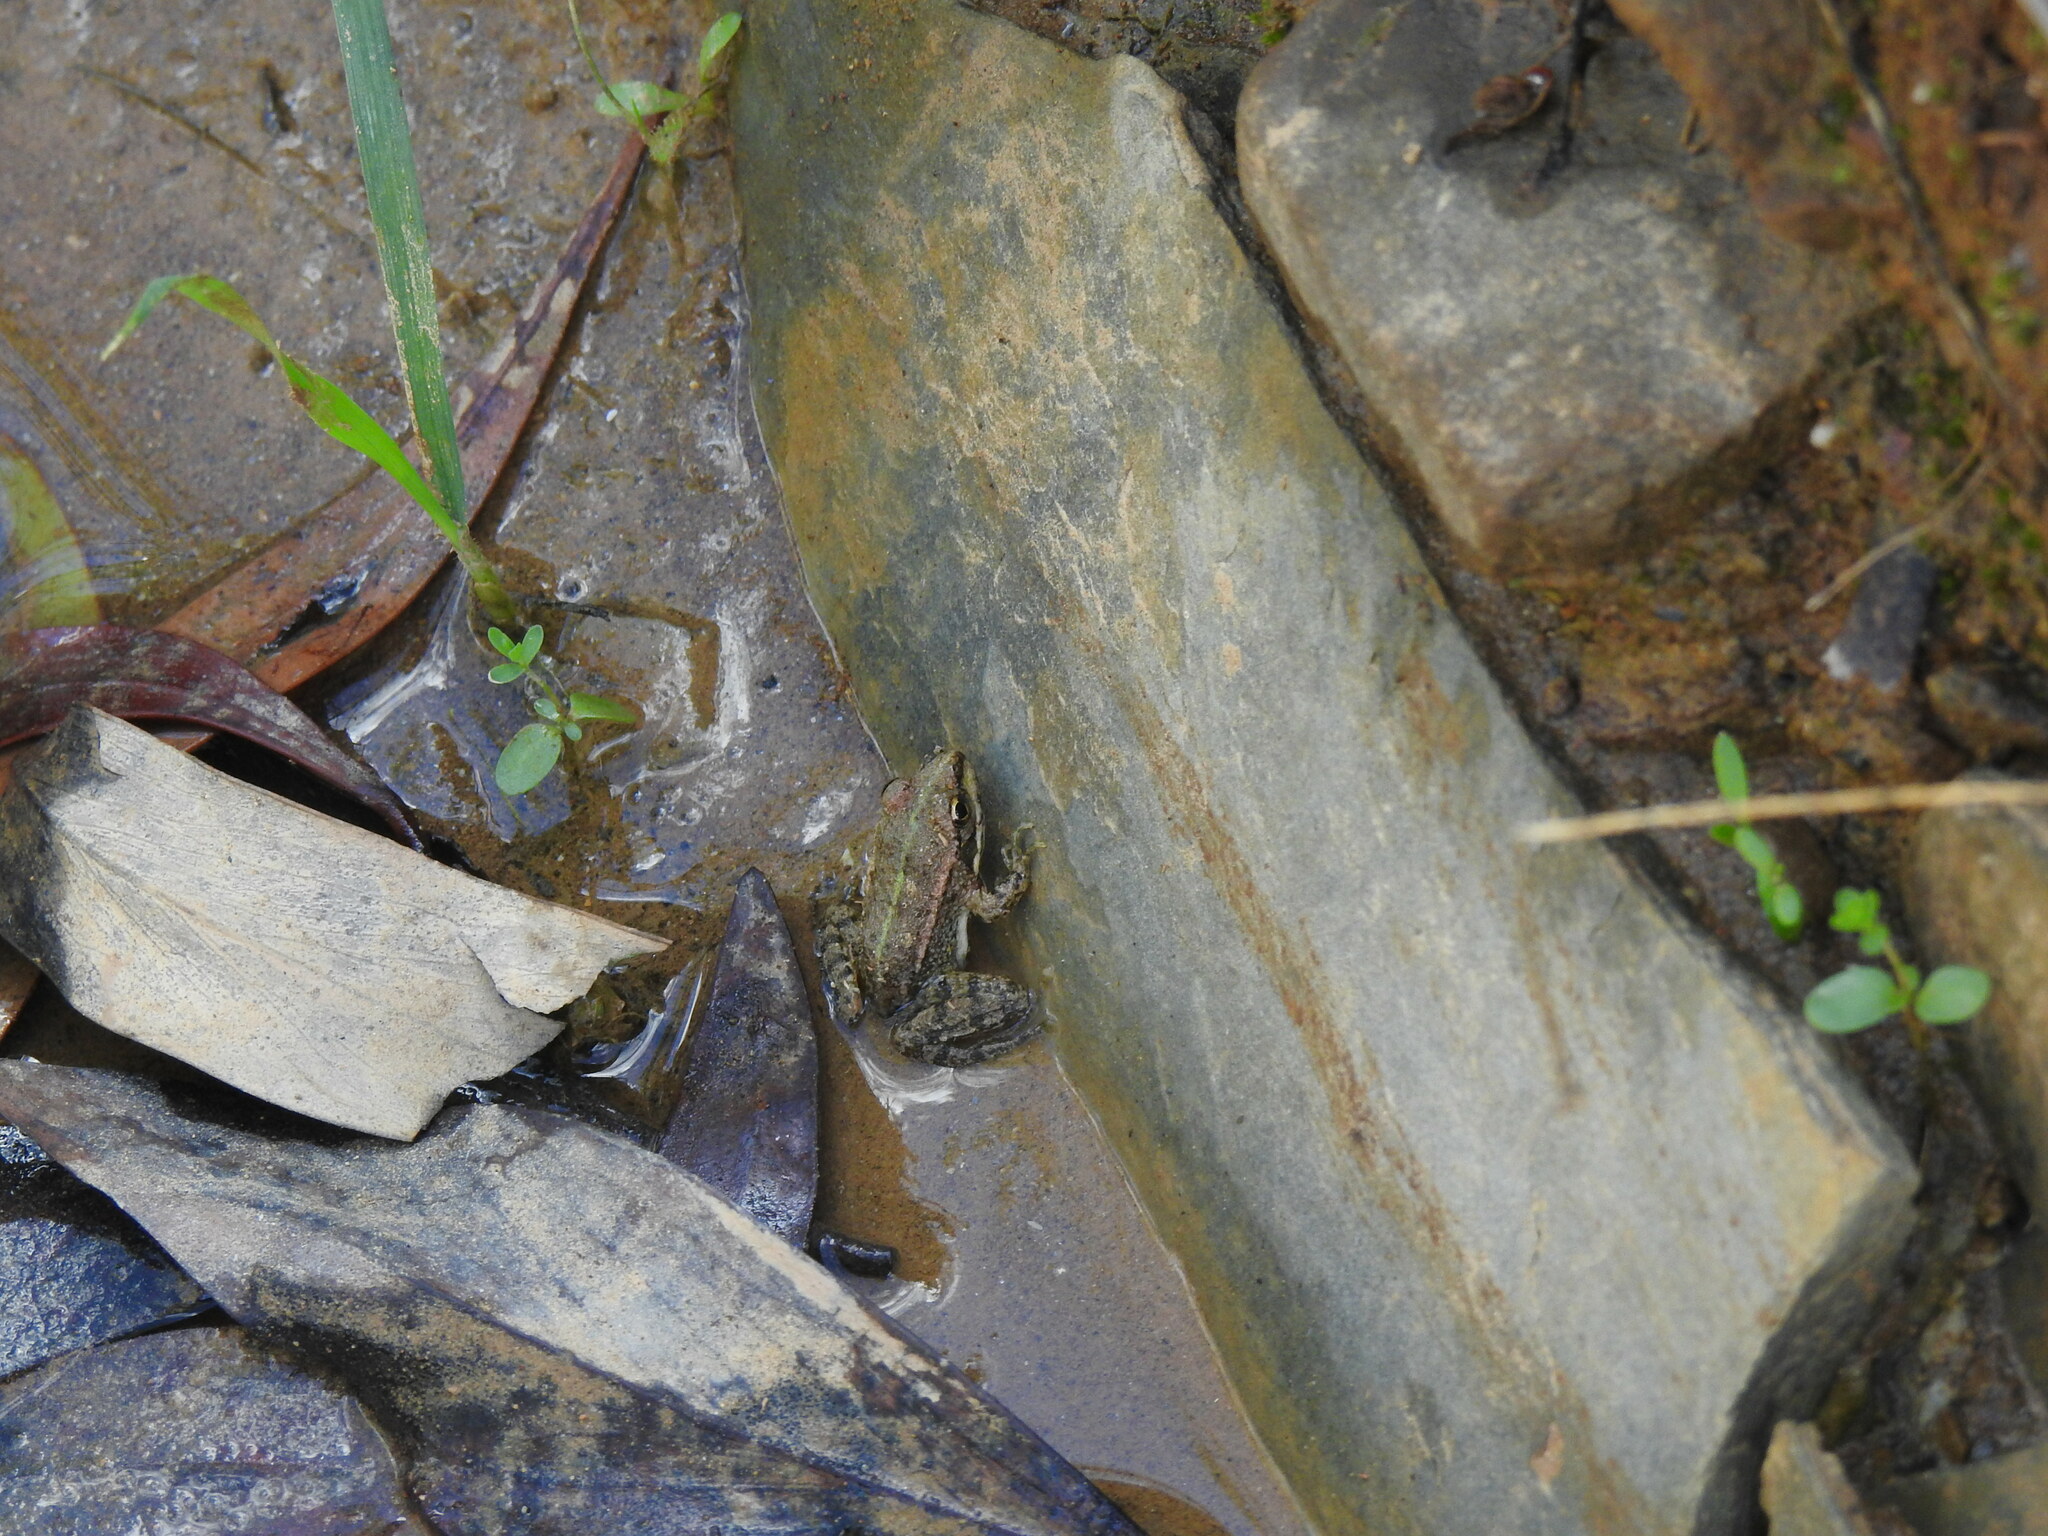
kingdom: Animalia
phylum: Chordata
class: Amphibia
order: Anura
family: Ranidae
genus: Pelophylax
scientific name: Pelophylax perezi
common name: Perez's frog
